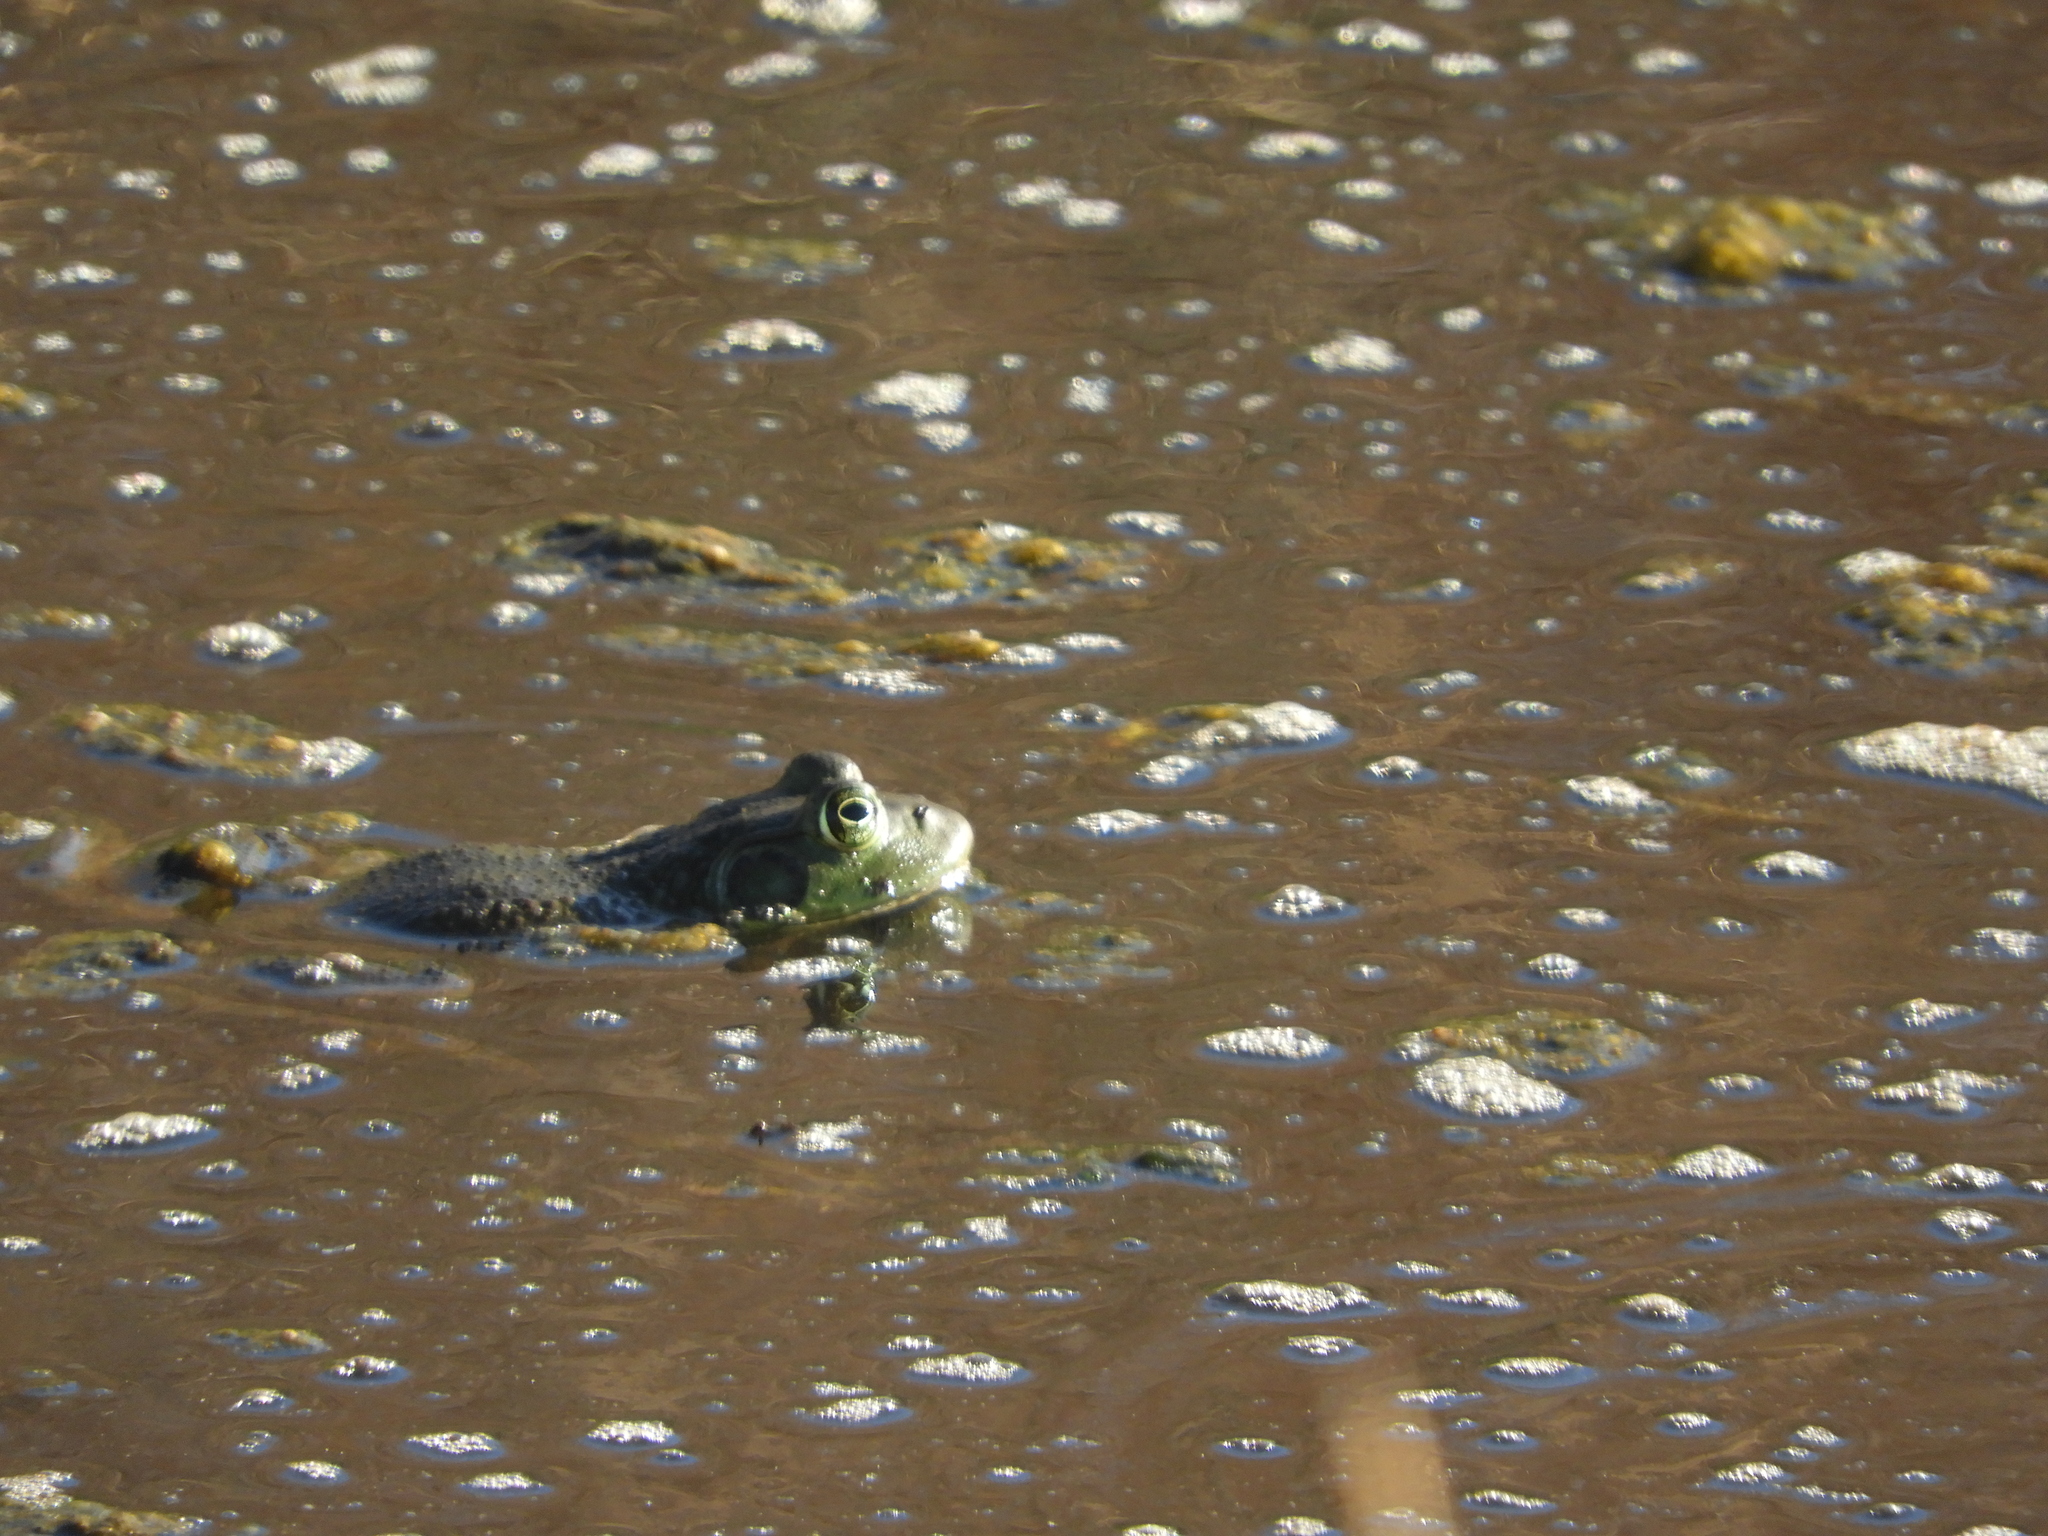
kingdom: Animalia
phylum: Chordata
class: Amphibia
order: Anura
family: Ranidae
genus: Lithobates
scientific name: Lithobates catesbeianus
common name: American bullfrog
